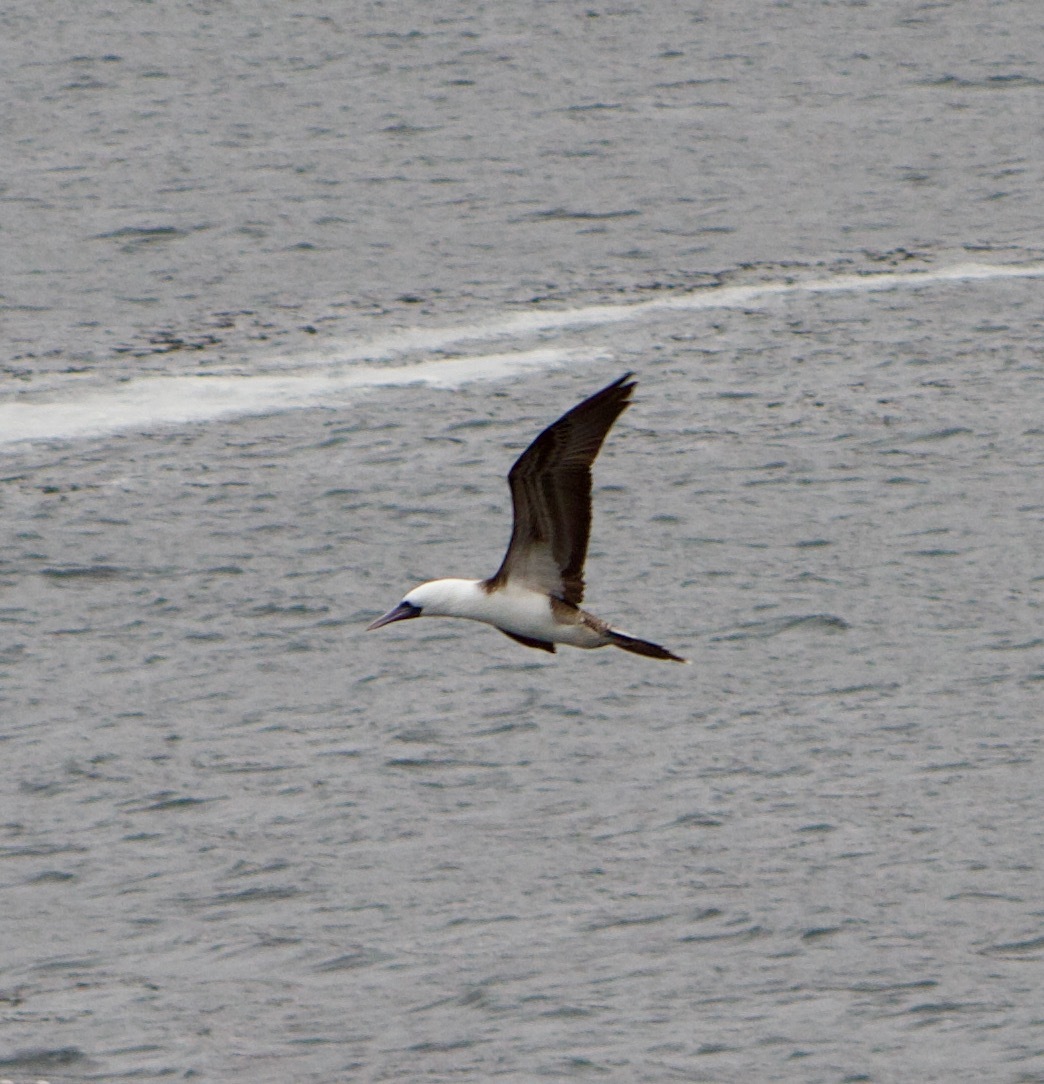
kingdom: Animalia
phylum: Chordata
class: Aves
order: Suliformes
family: Sulidae
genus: Sula
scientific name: Sula variegata
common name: Peruvian booby
